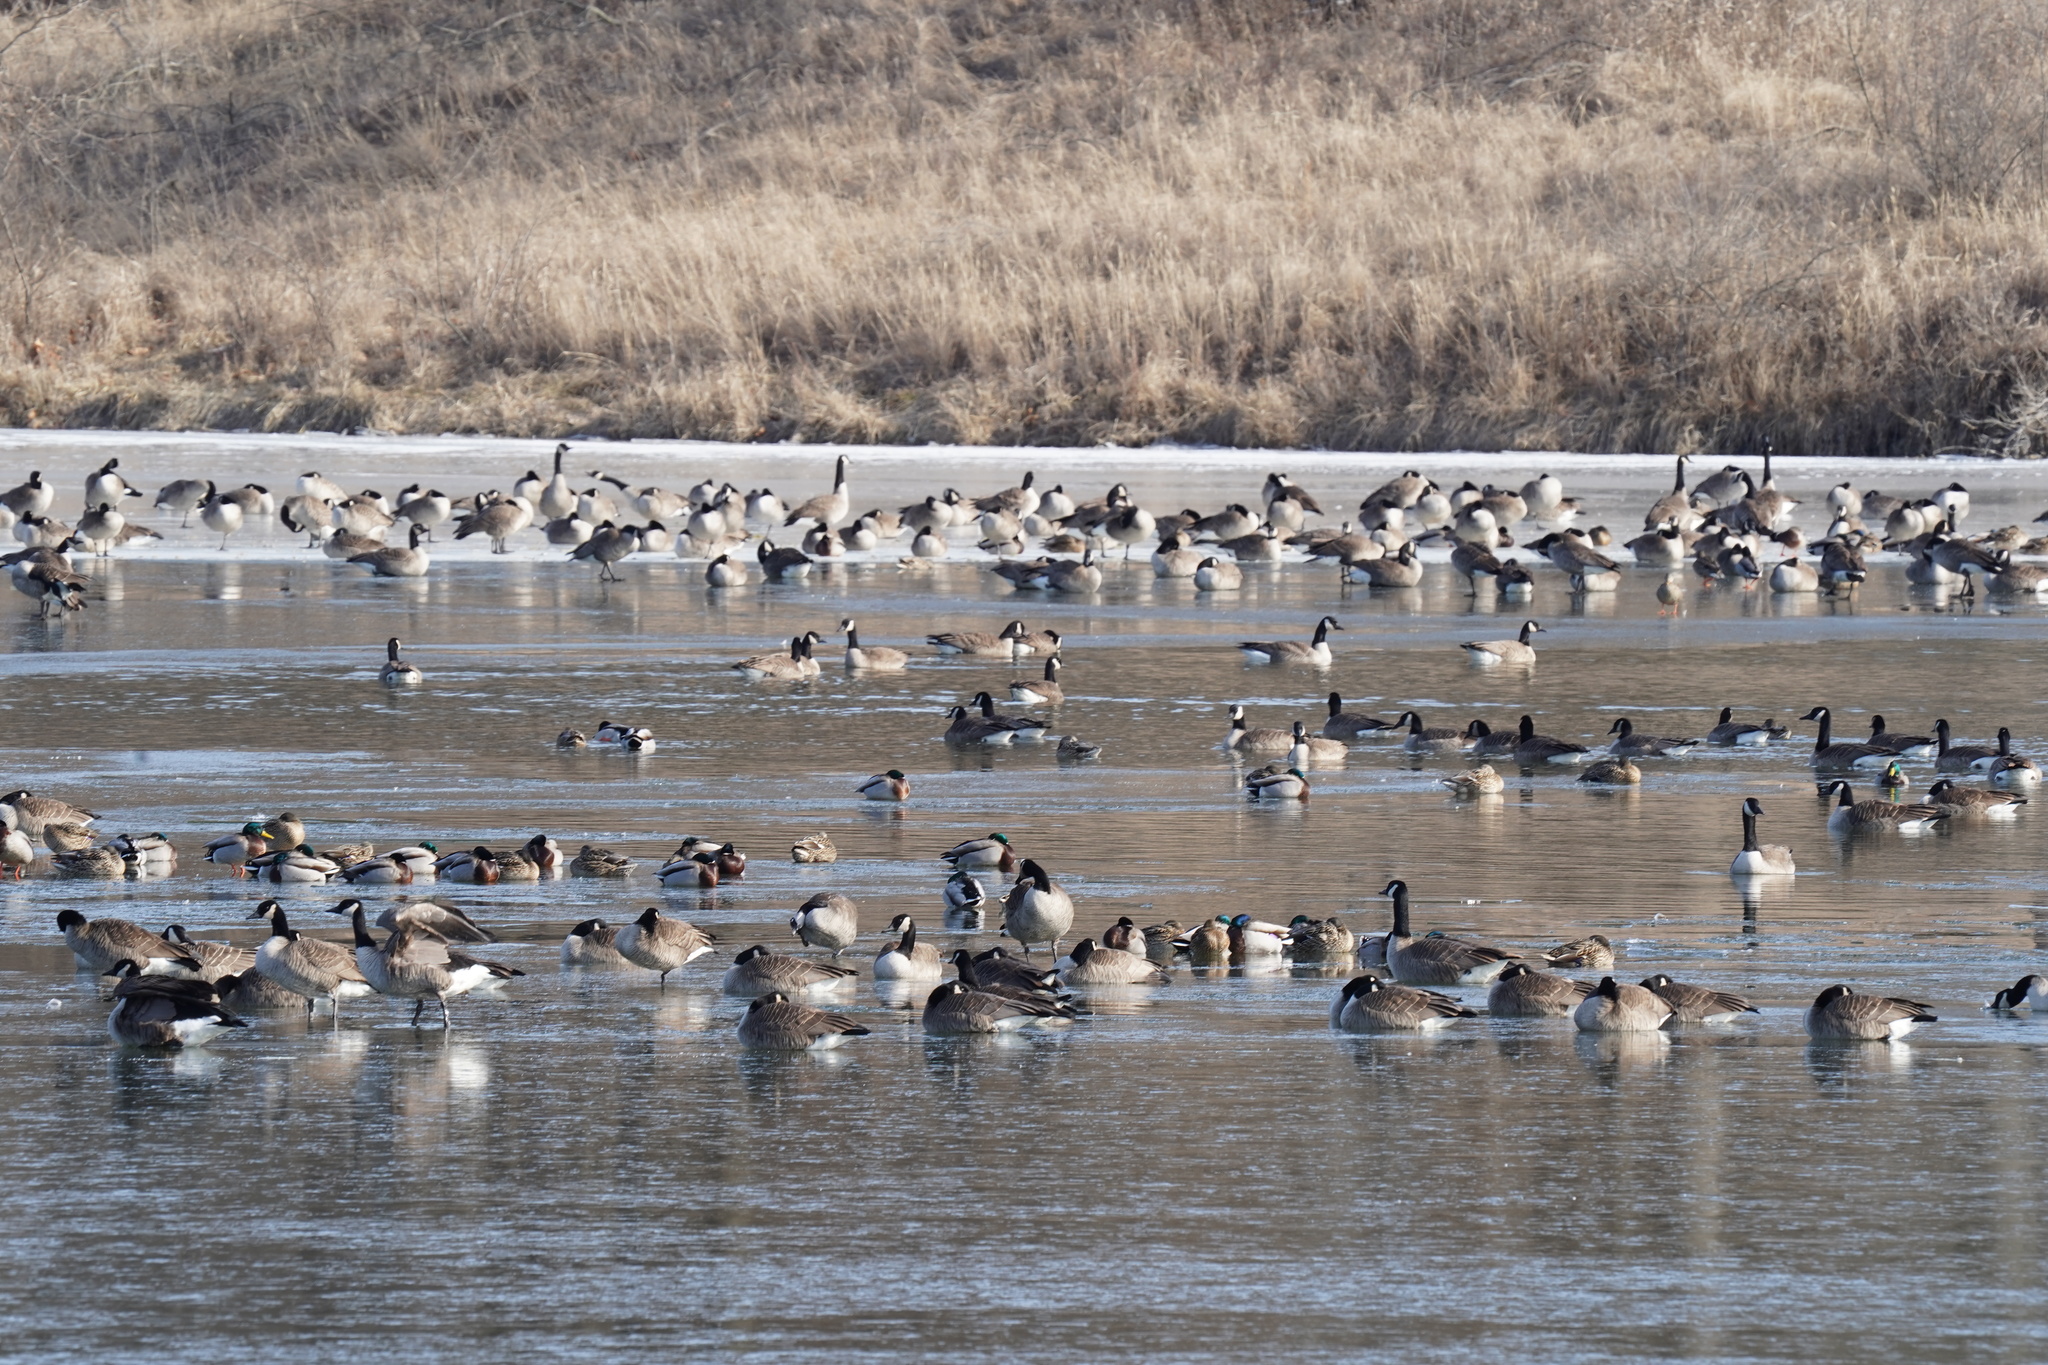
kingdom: Animalia
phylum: Chordata
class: Aves
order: Anseriformes
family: Anatidae
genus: Branta
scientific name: Branta canadensis
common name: Canada goose
